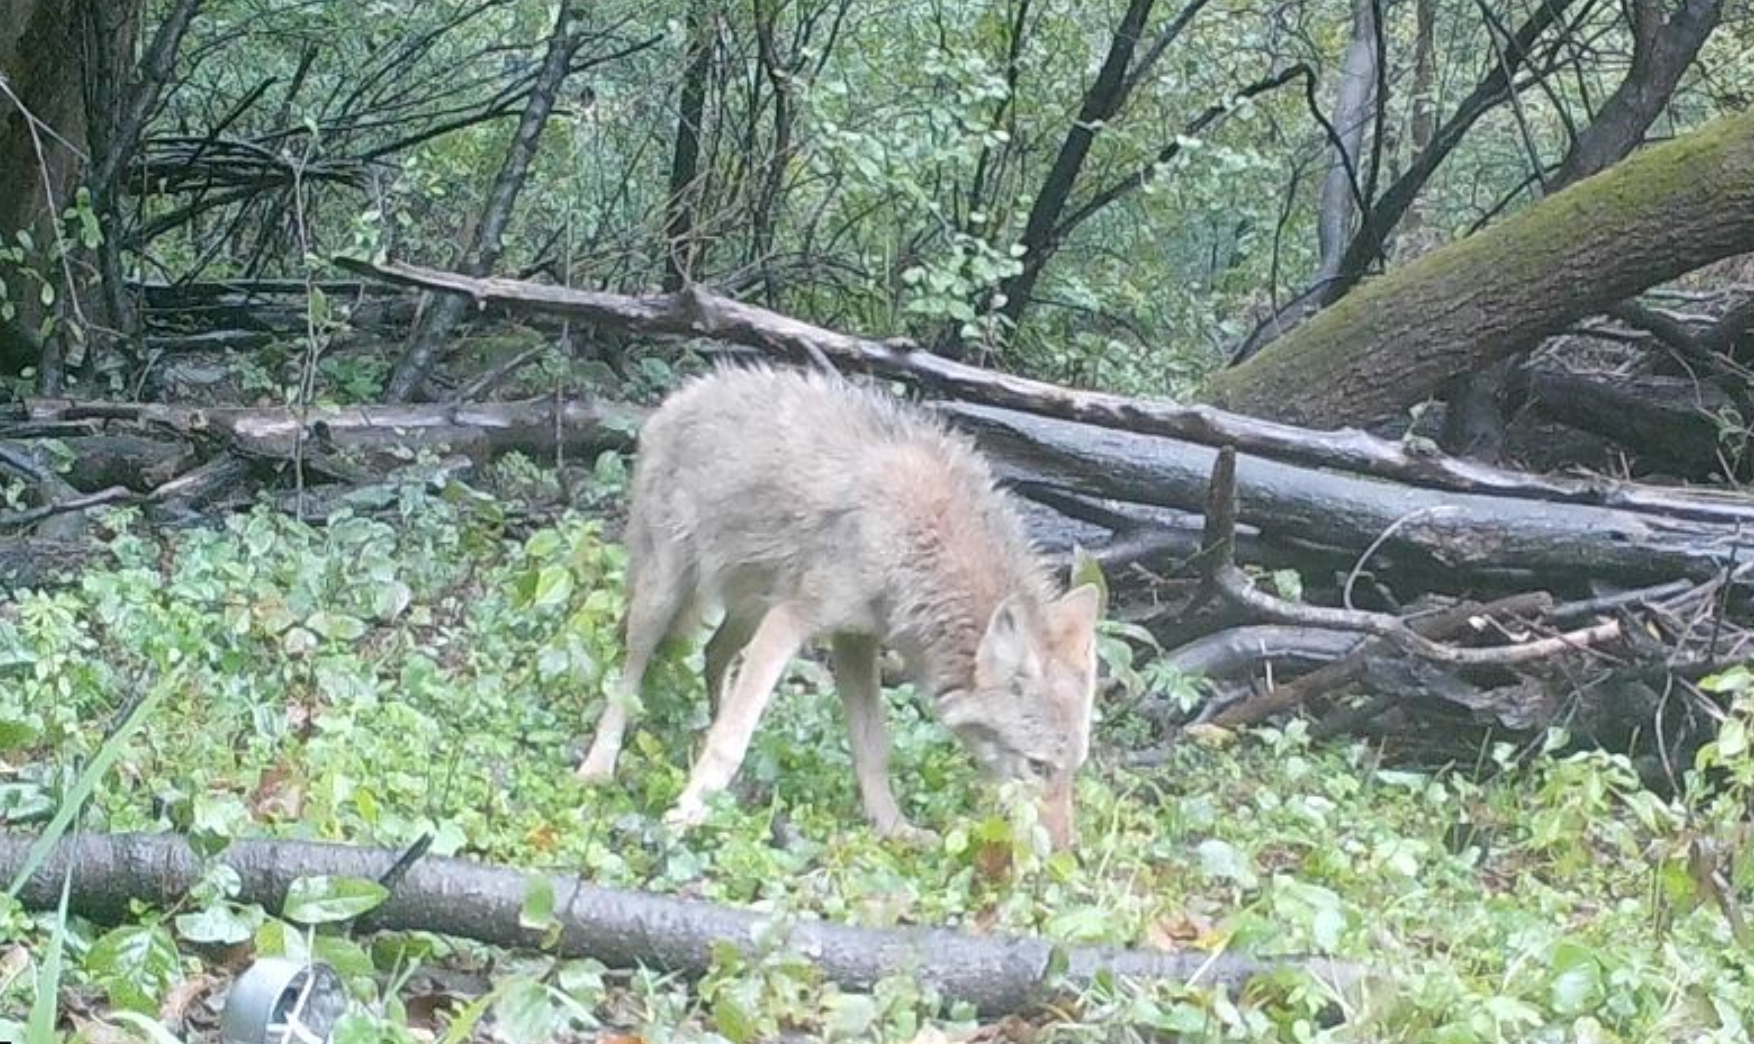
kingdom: Animalia
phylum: Chordata
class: Mammalia
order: Carnivora
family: Canidae
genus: Canis
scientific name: Canis latrans
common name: Coyote
